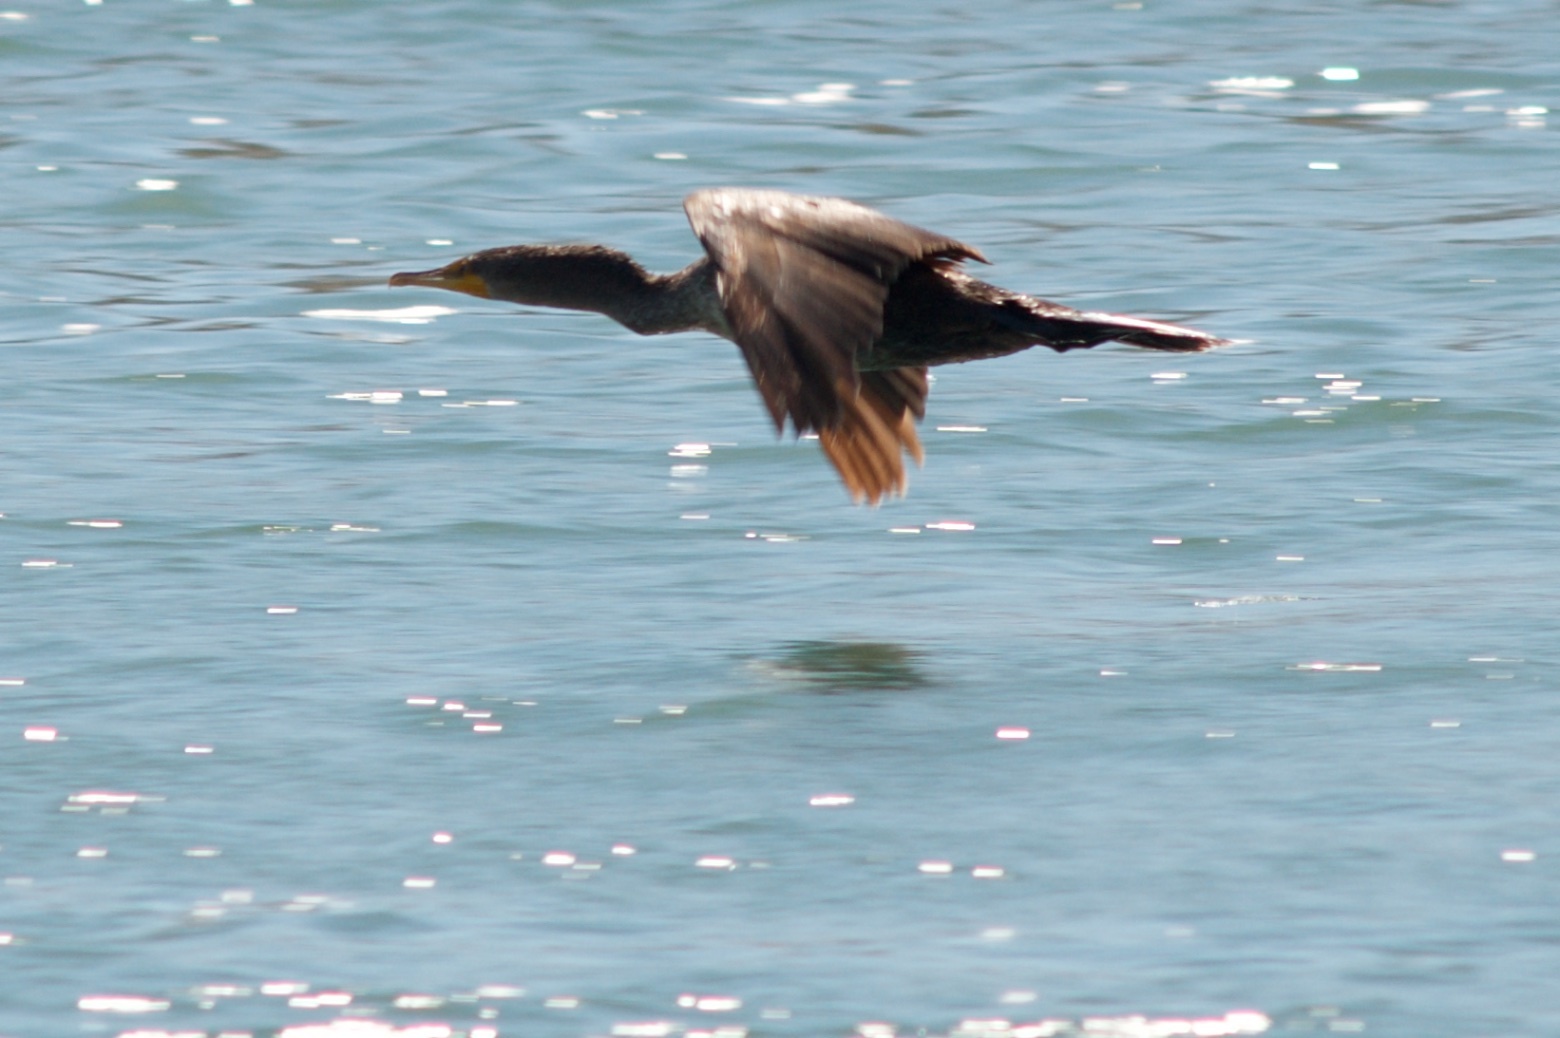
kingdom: Animalia
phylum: Chordata
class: Aves
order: Suliformes
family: Phalacrocoracidae
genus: Phalacrocorax
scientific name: Phalacrocorax auritus
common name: Double-crested cormorant
